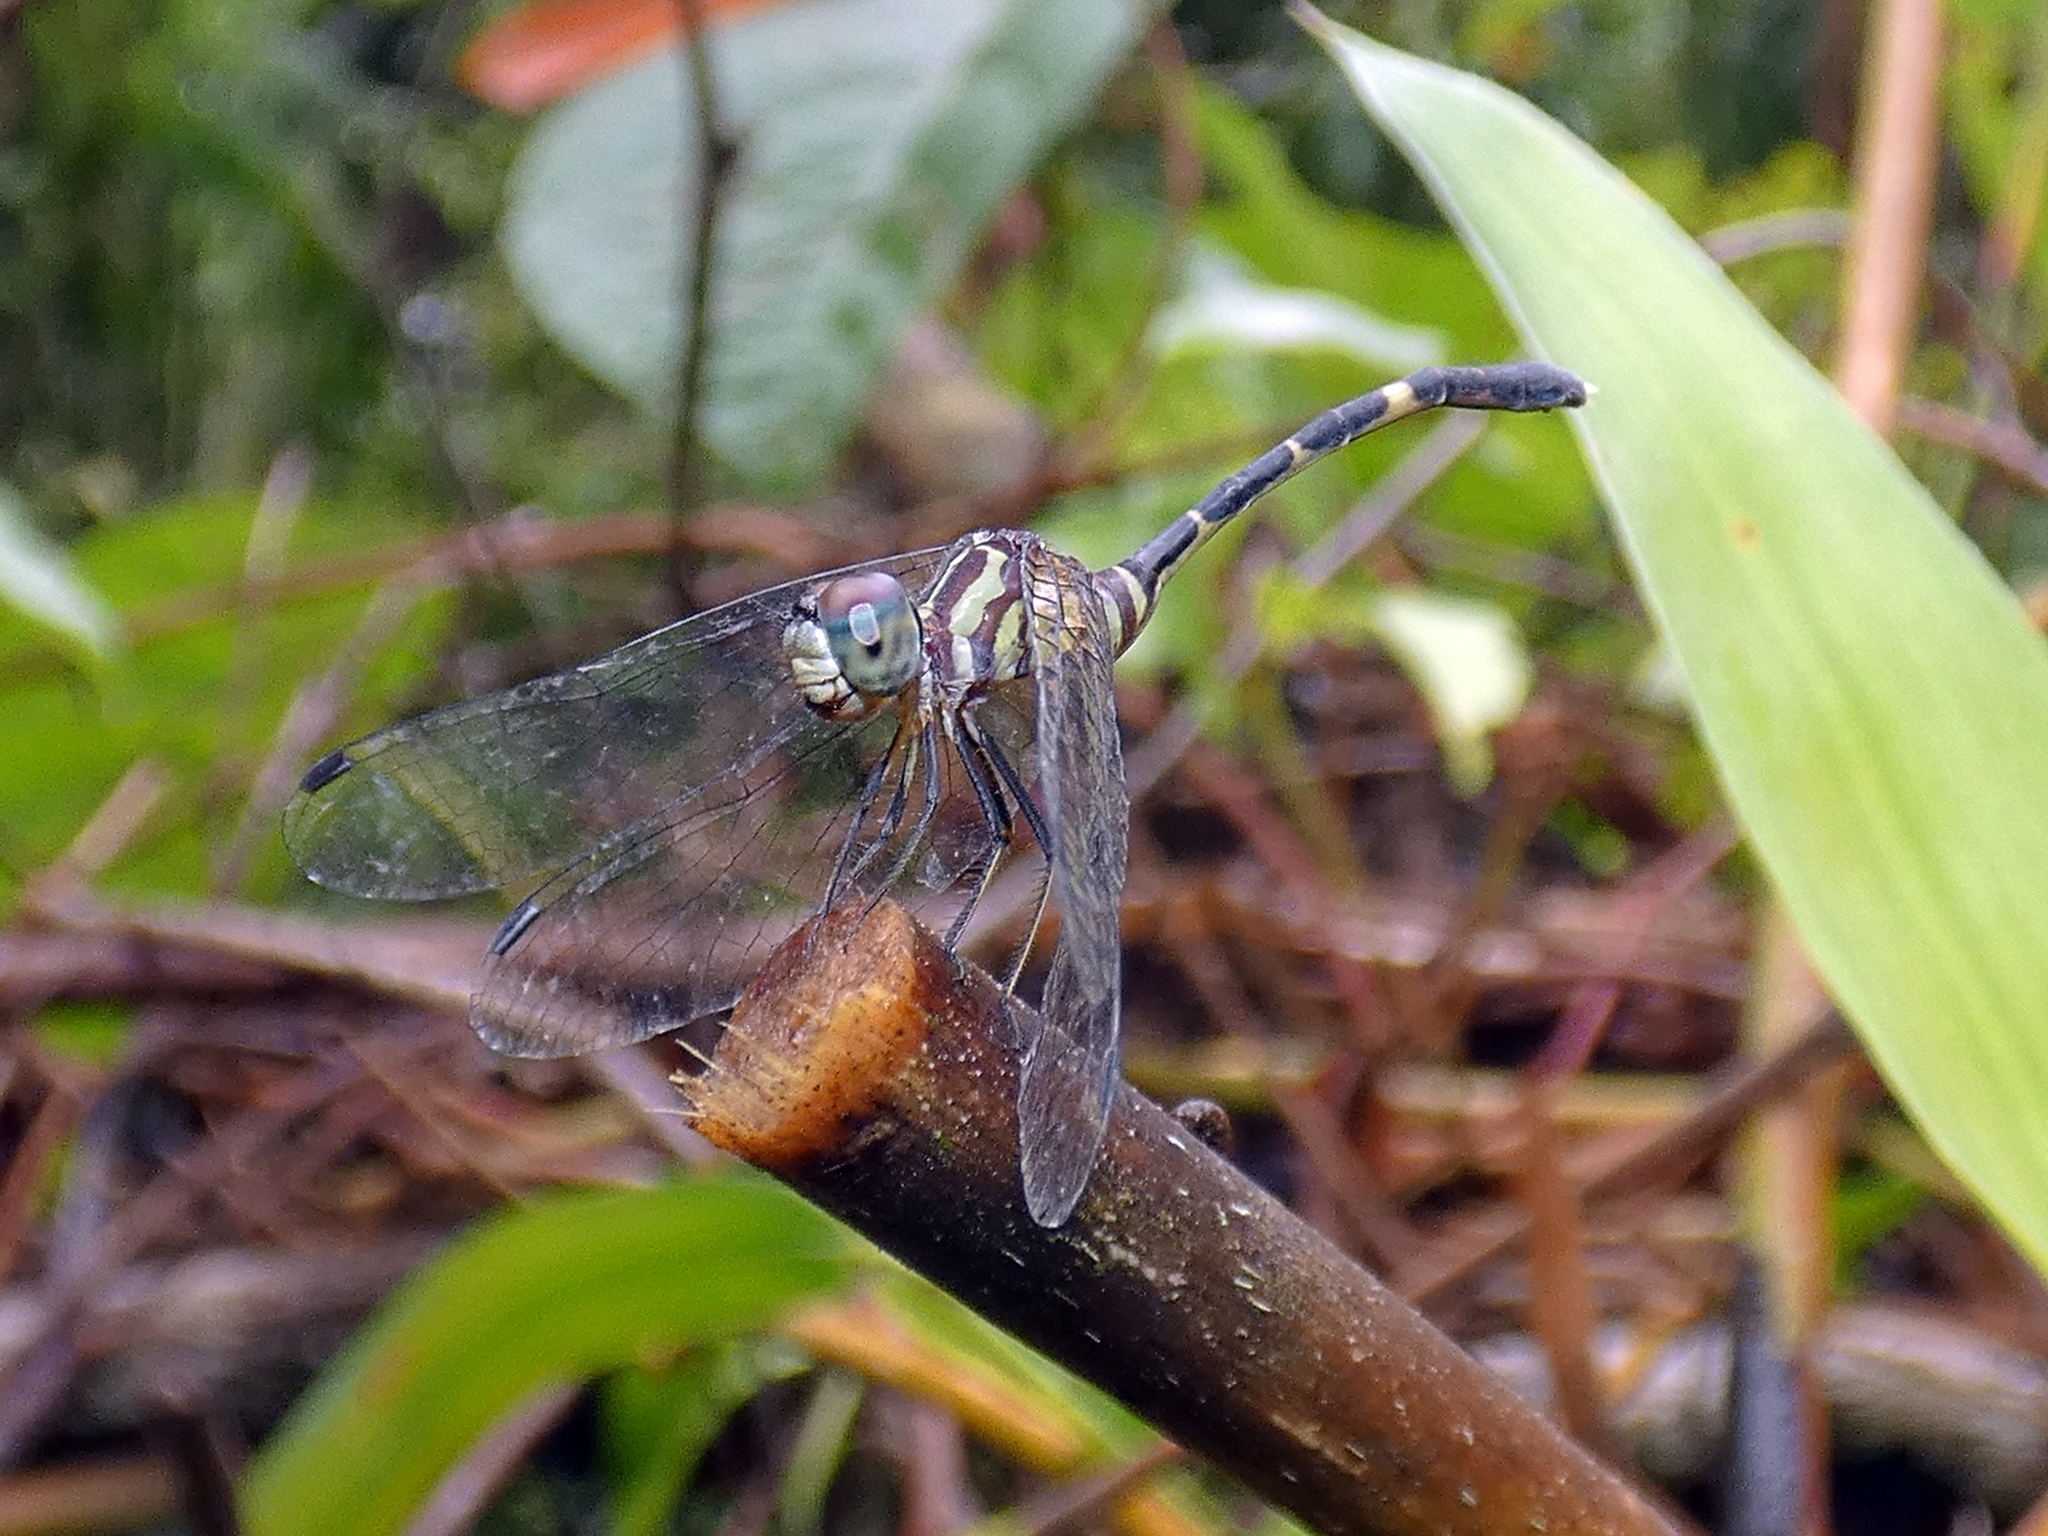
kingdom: Animalia
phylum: Arthropoda
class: Insecta
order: Odonata
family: Libellulidae
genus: Nannophlebia
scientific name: Nannophlebia eludens
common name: Elusive archtail
